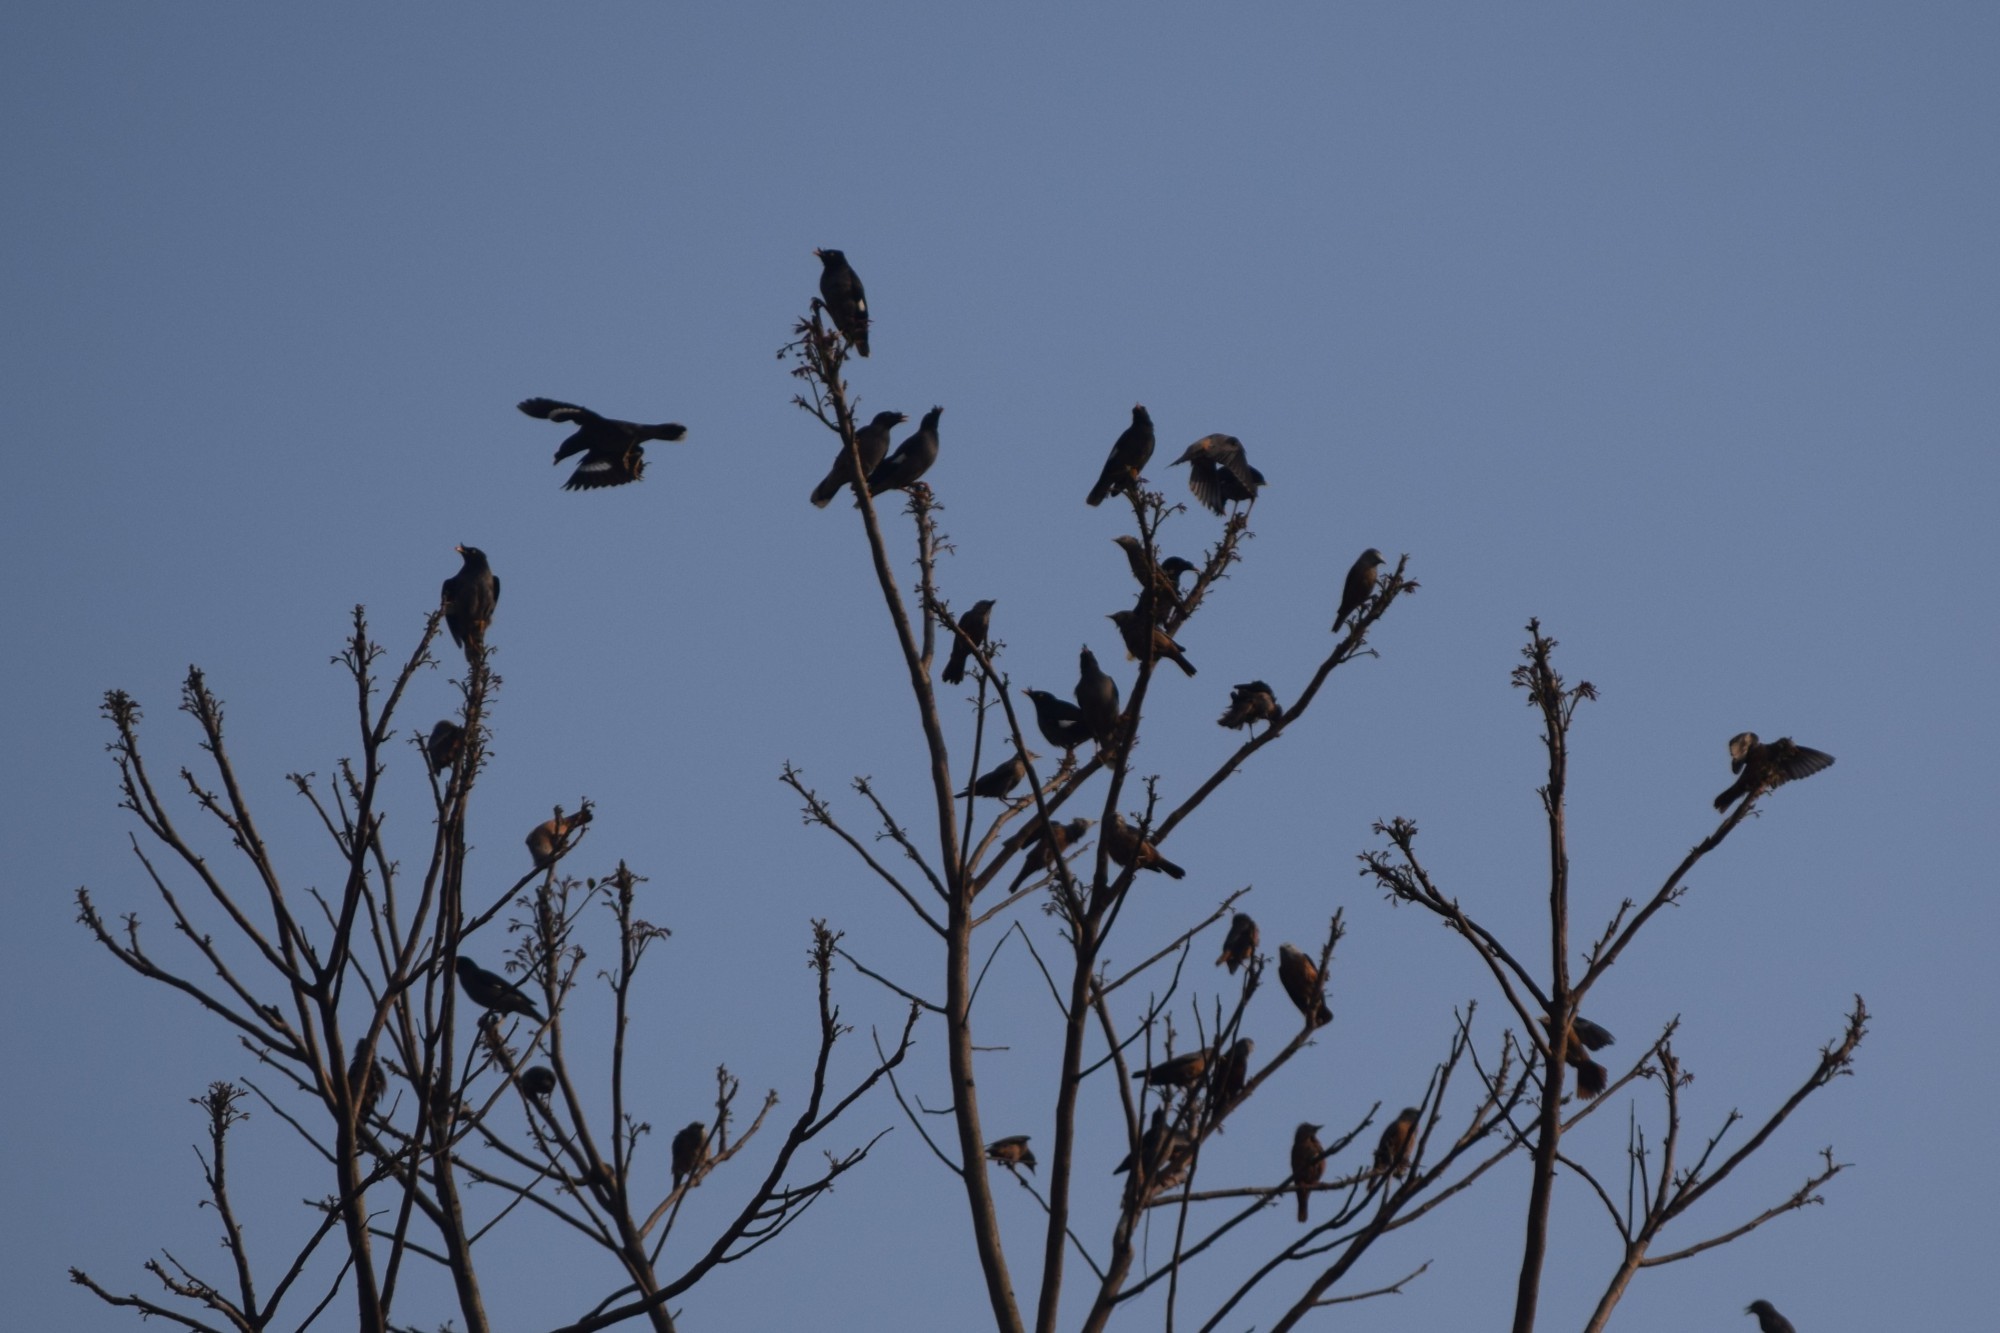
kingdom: Animalia
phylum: Chordata
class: Aves
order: Passeriformes
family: Sturnidae
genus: Acridotheres
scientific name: Acridotheres fuscus
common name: Jungle myna
